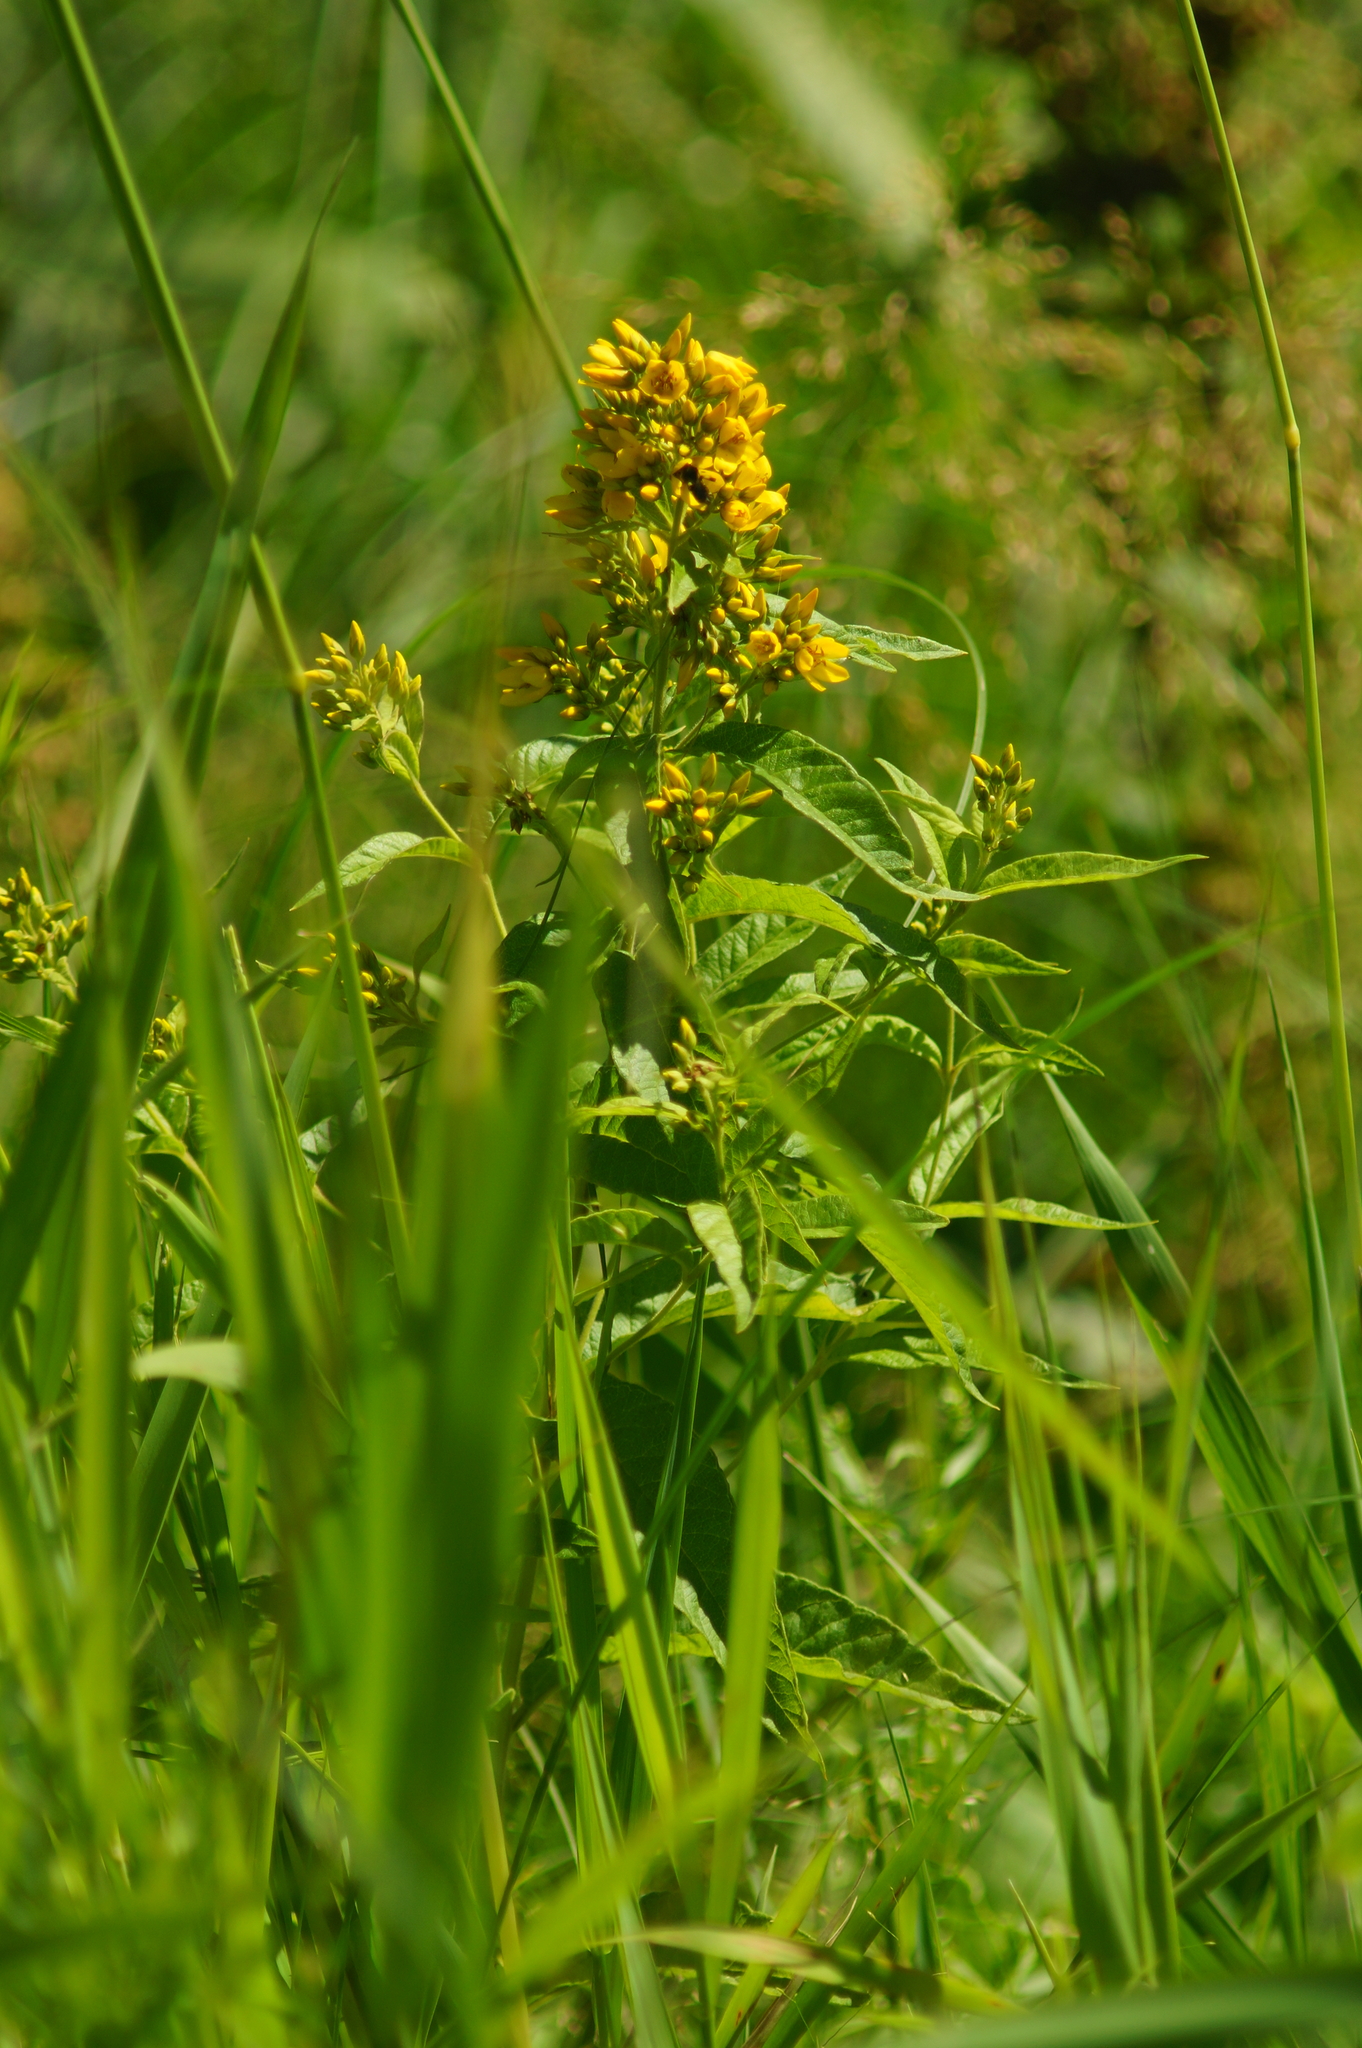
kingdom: Plantae
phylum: Tracheophyta
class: Magnoliopsida
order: Ericales
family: Primulaceae
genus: Lysimachia
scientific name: Lysimachia vulgaris
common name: Yellow loosestrife
